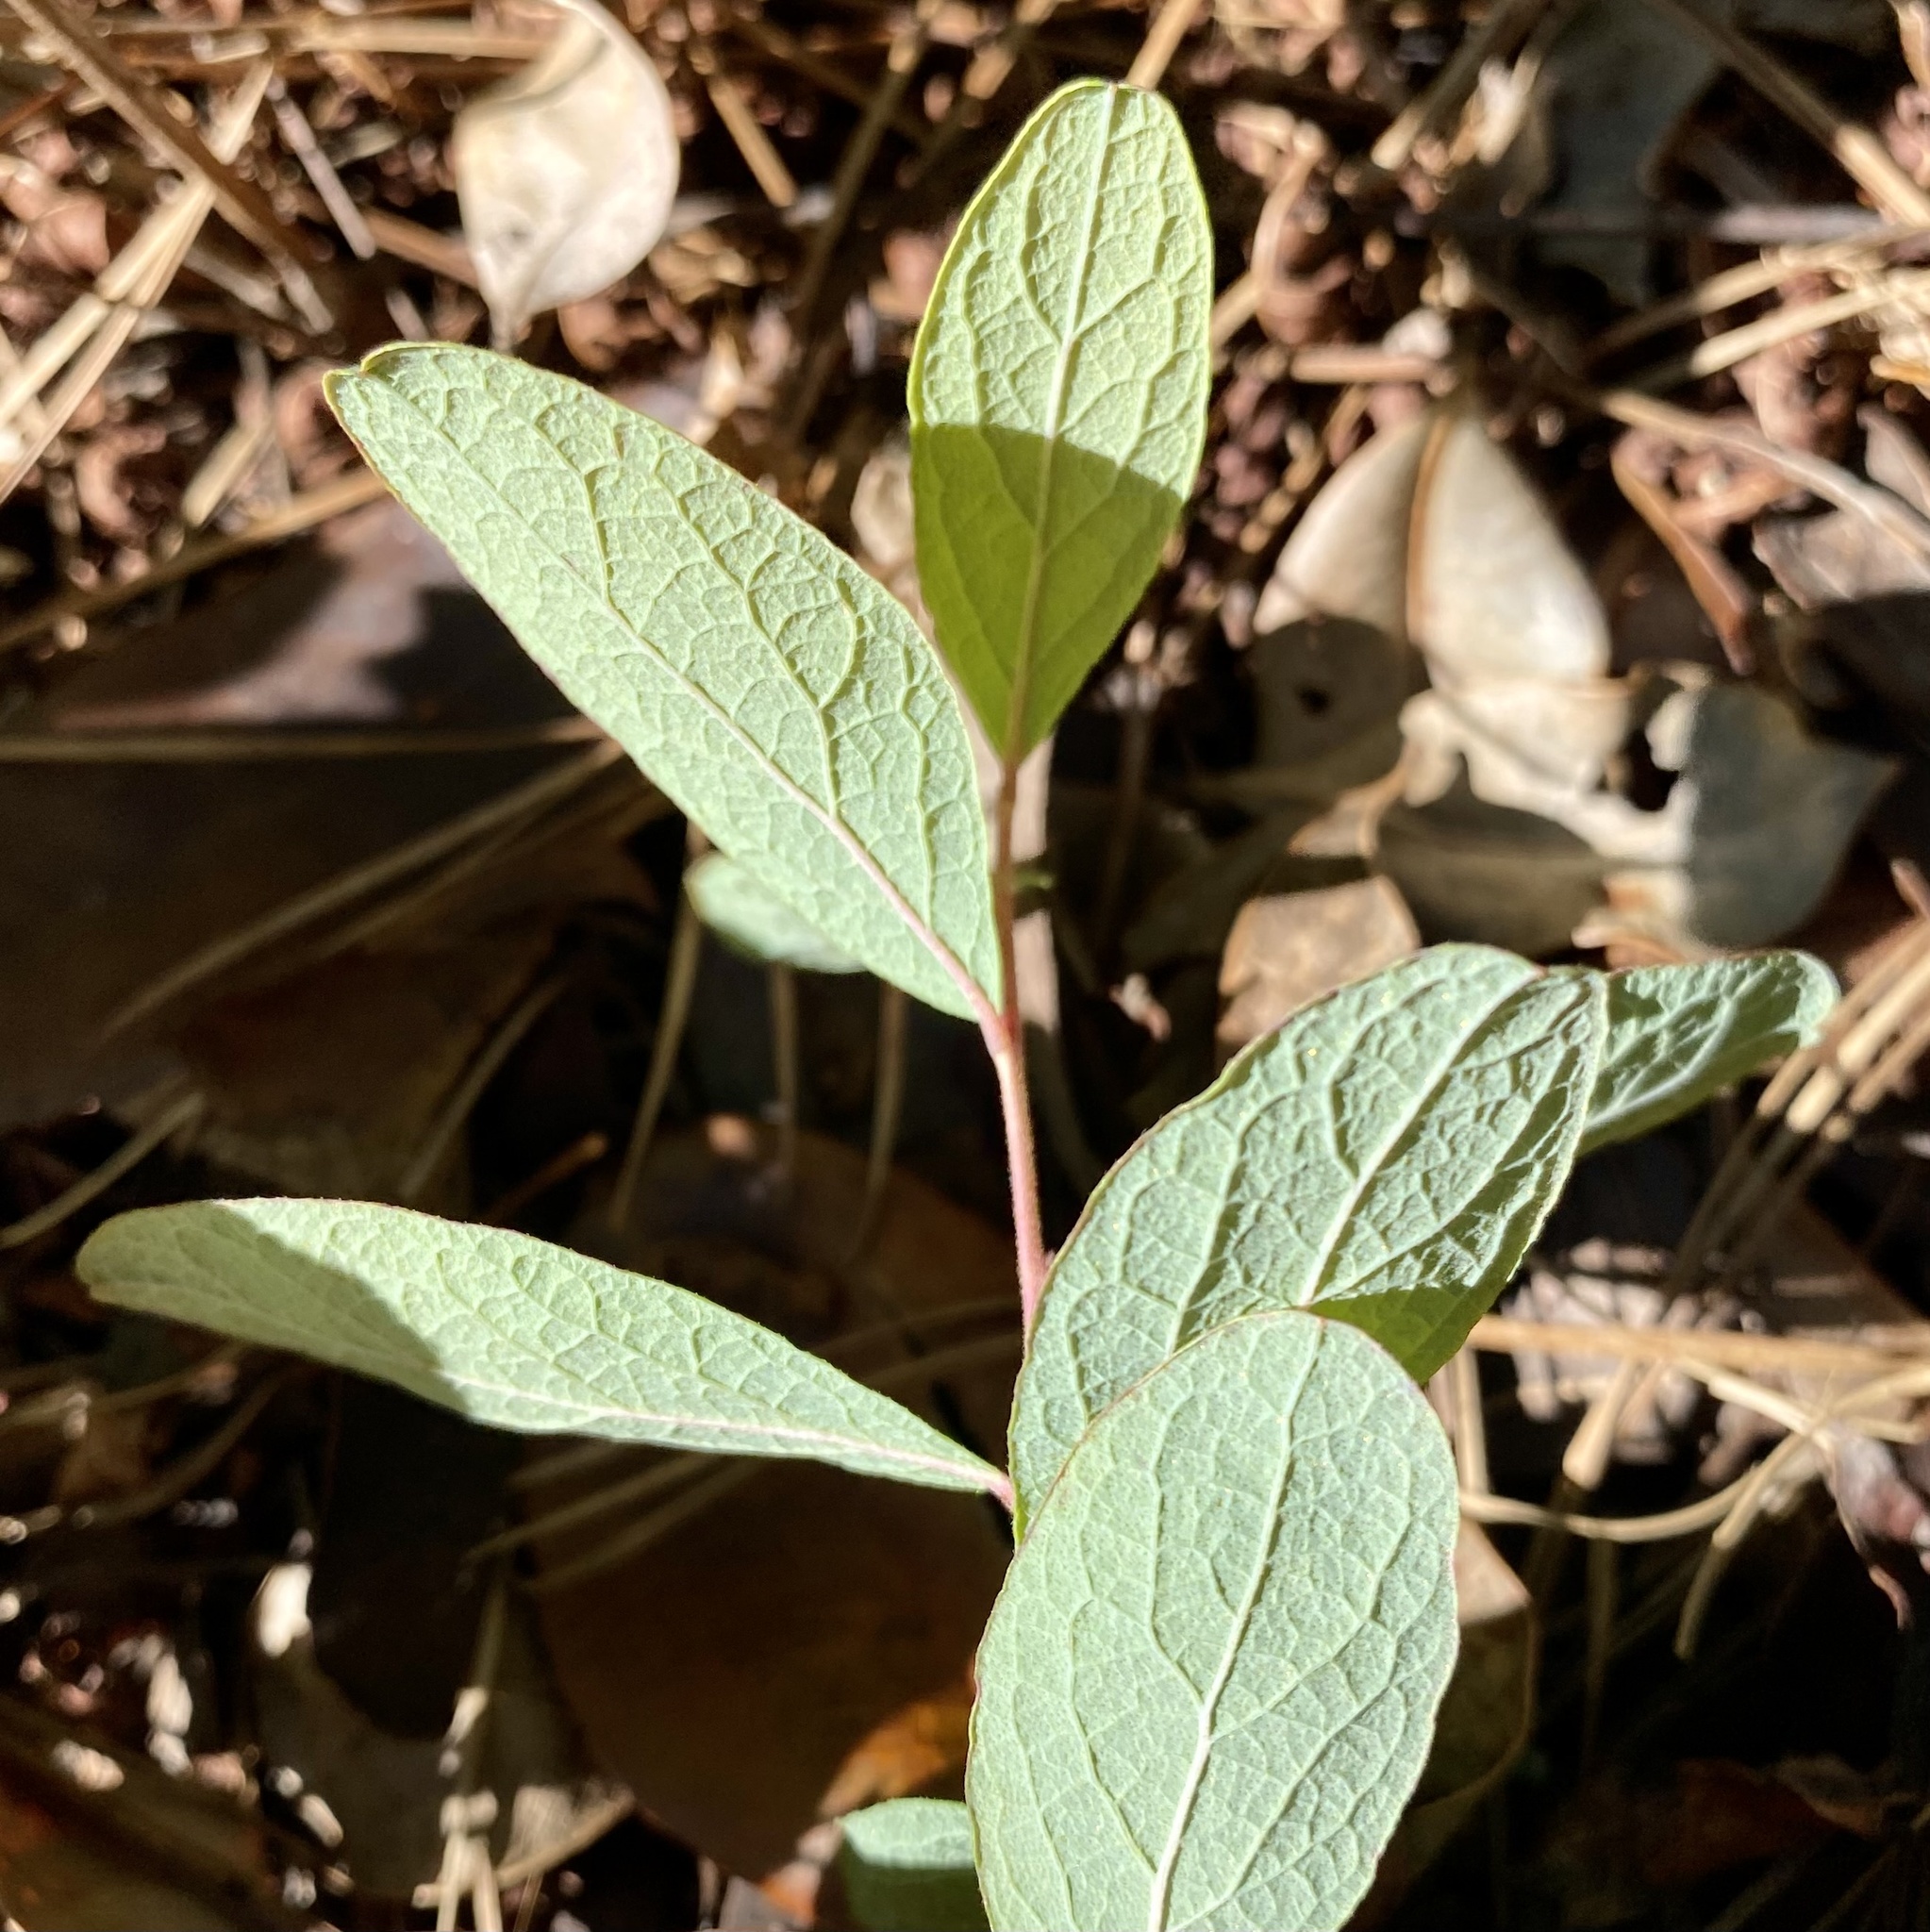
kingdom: Plantae
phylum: Tracheophyta
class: Magnoliopsida
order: Ericales
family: Ericaceae
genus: Gaylussacia
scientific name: Gaylussacia tomentosa
